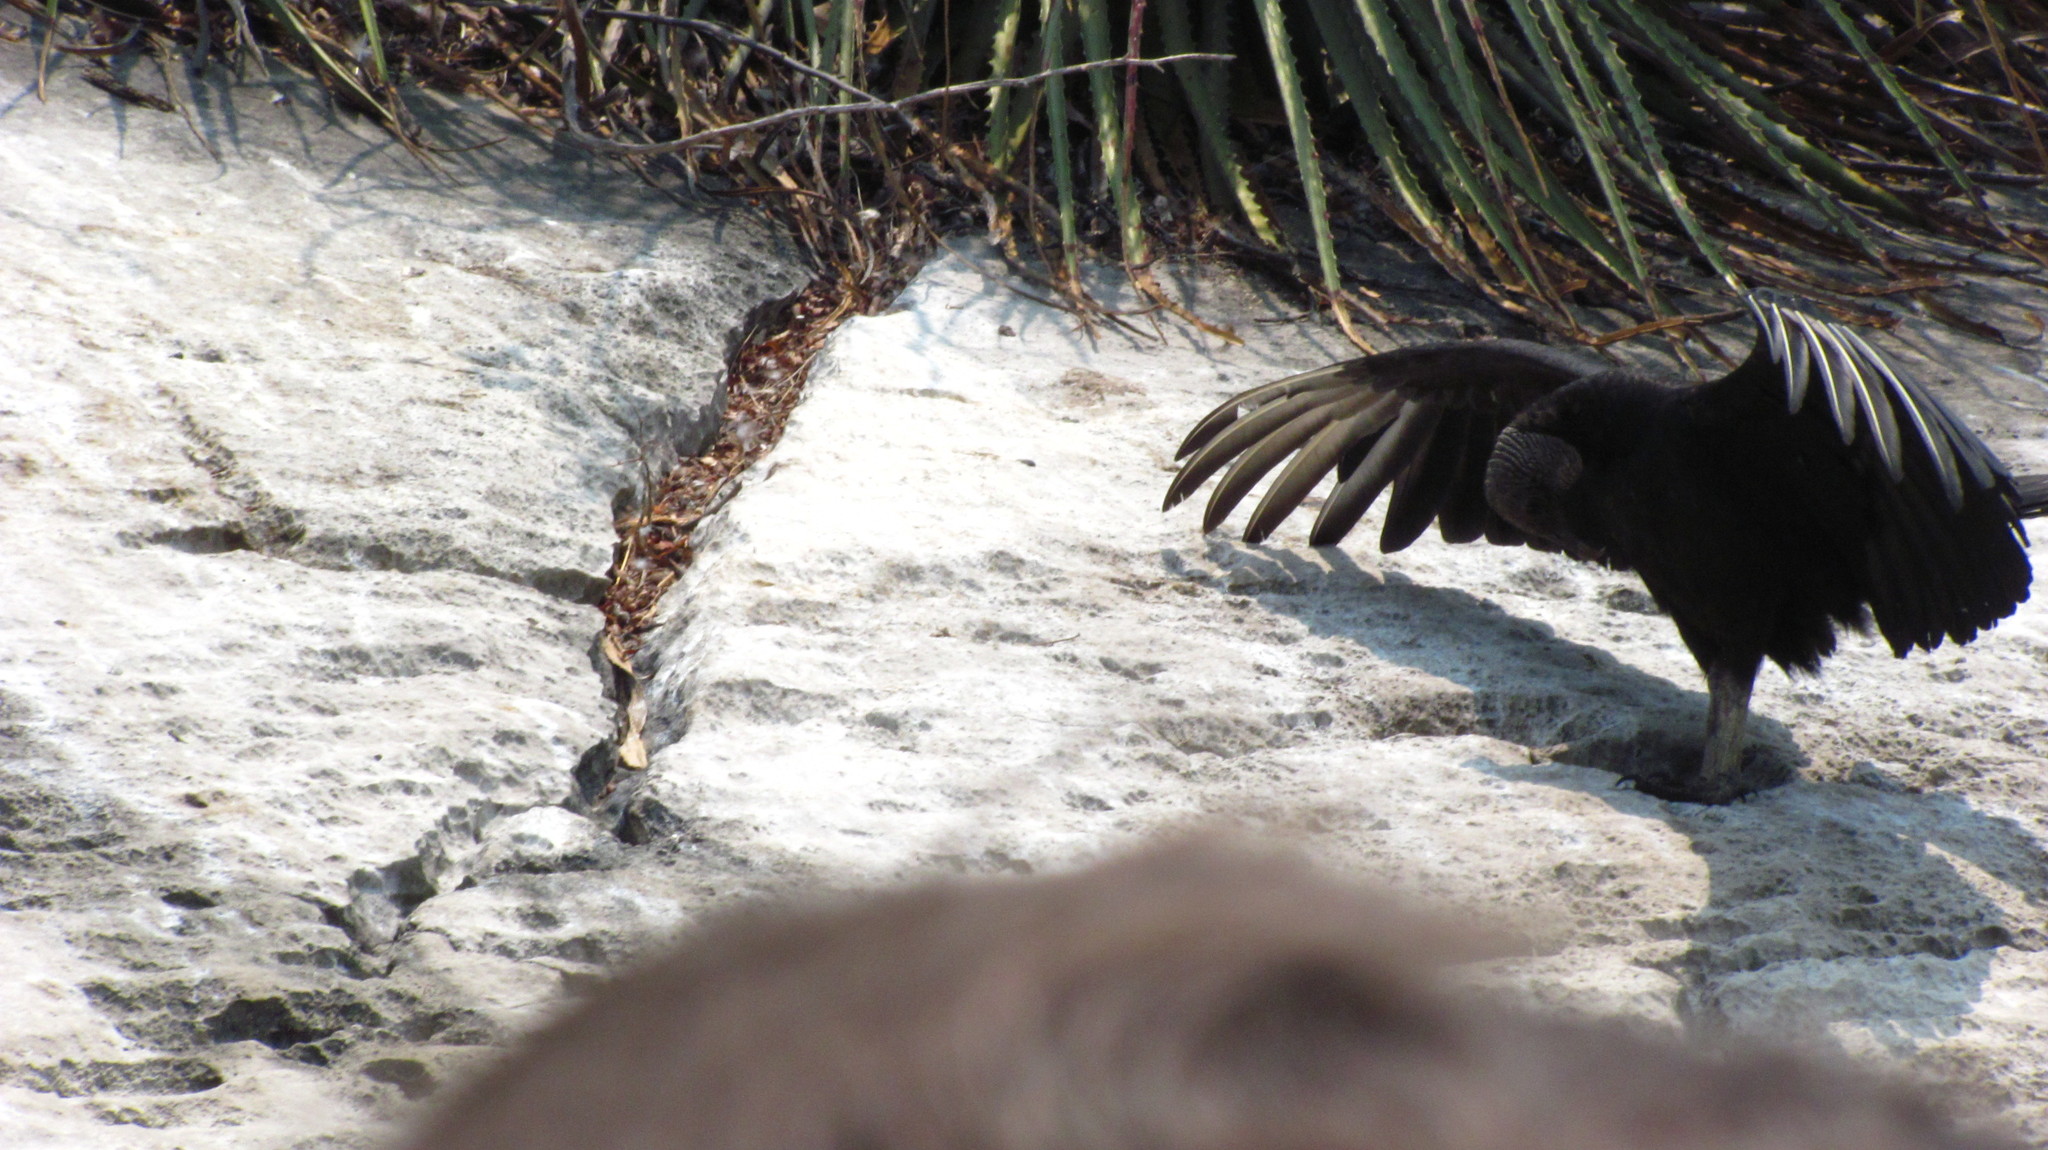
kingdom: Animalia
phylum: Chordata
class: Aves
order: Accipitriformes
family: Cathartidae
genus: Coragyps
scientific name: Coragyps atratus
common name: Black vulture
